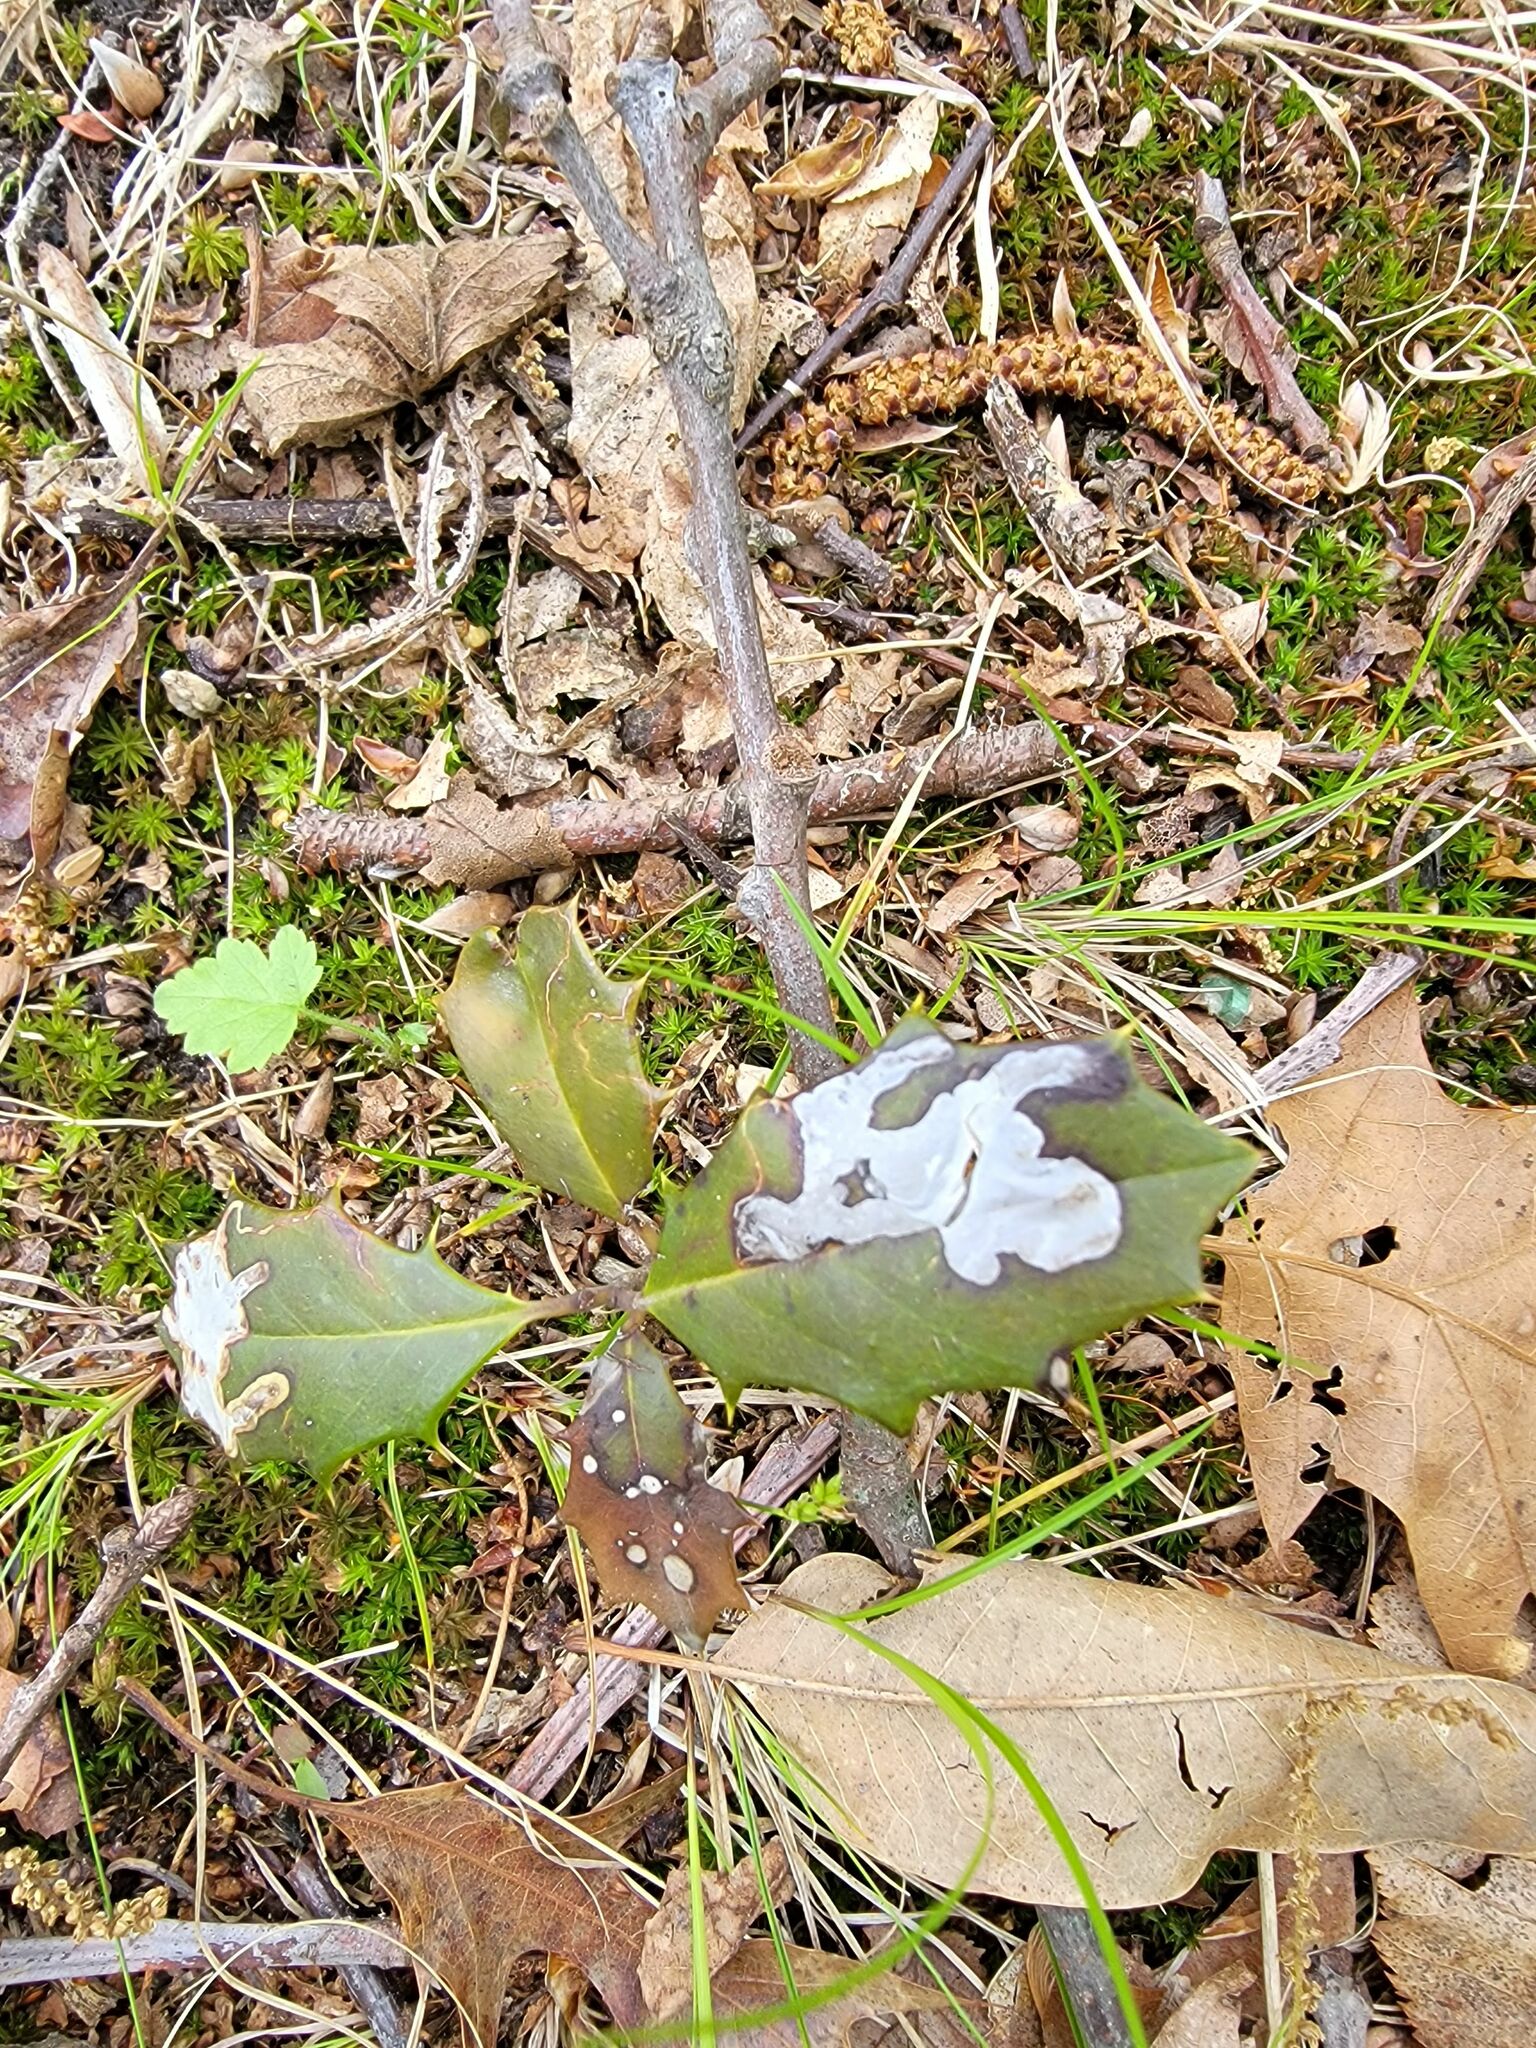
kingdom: Animalia
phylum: Arthropoda
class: Insecta
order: Diptera
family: Agromyzidae
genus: Phytomyza
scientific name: Phytomyza ilicicola
